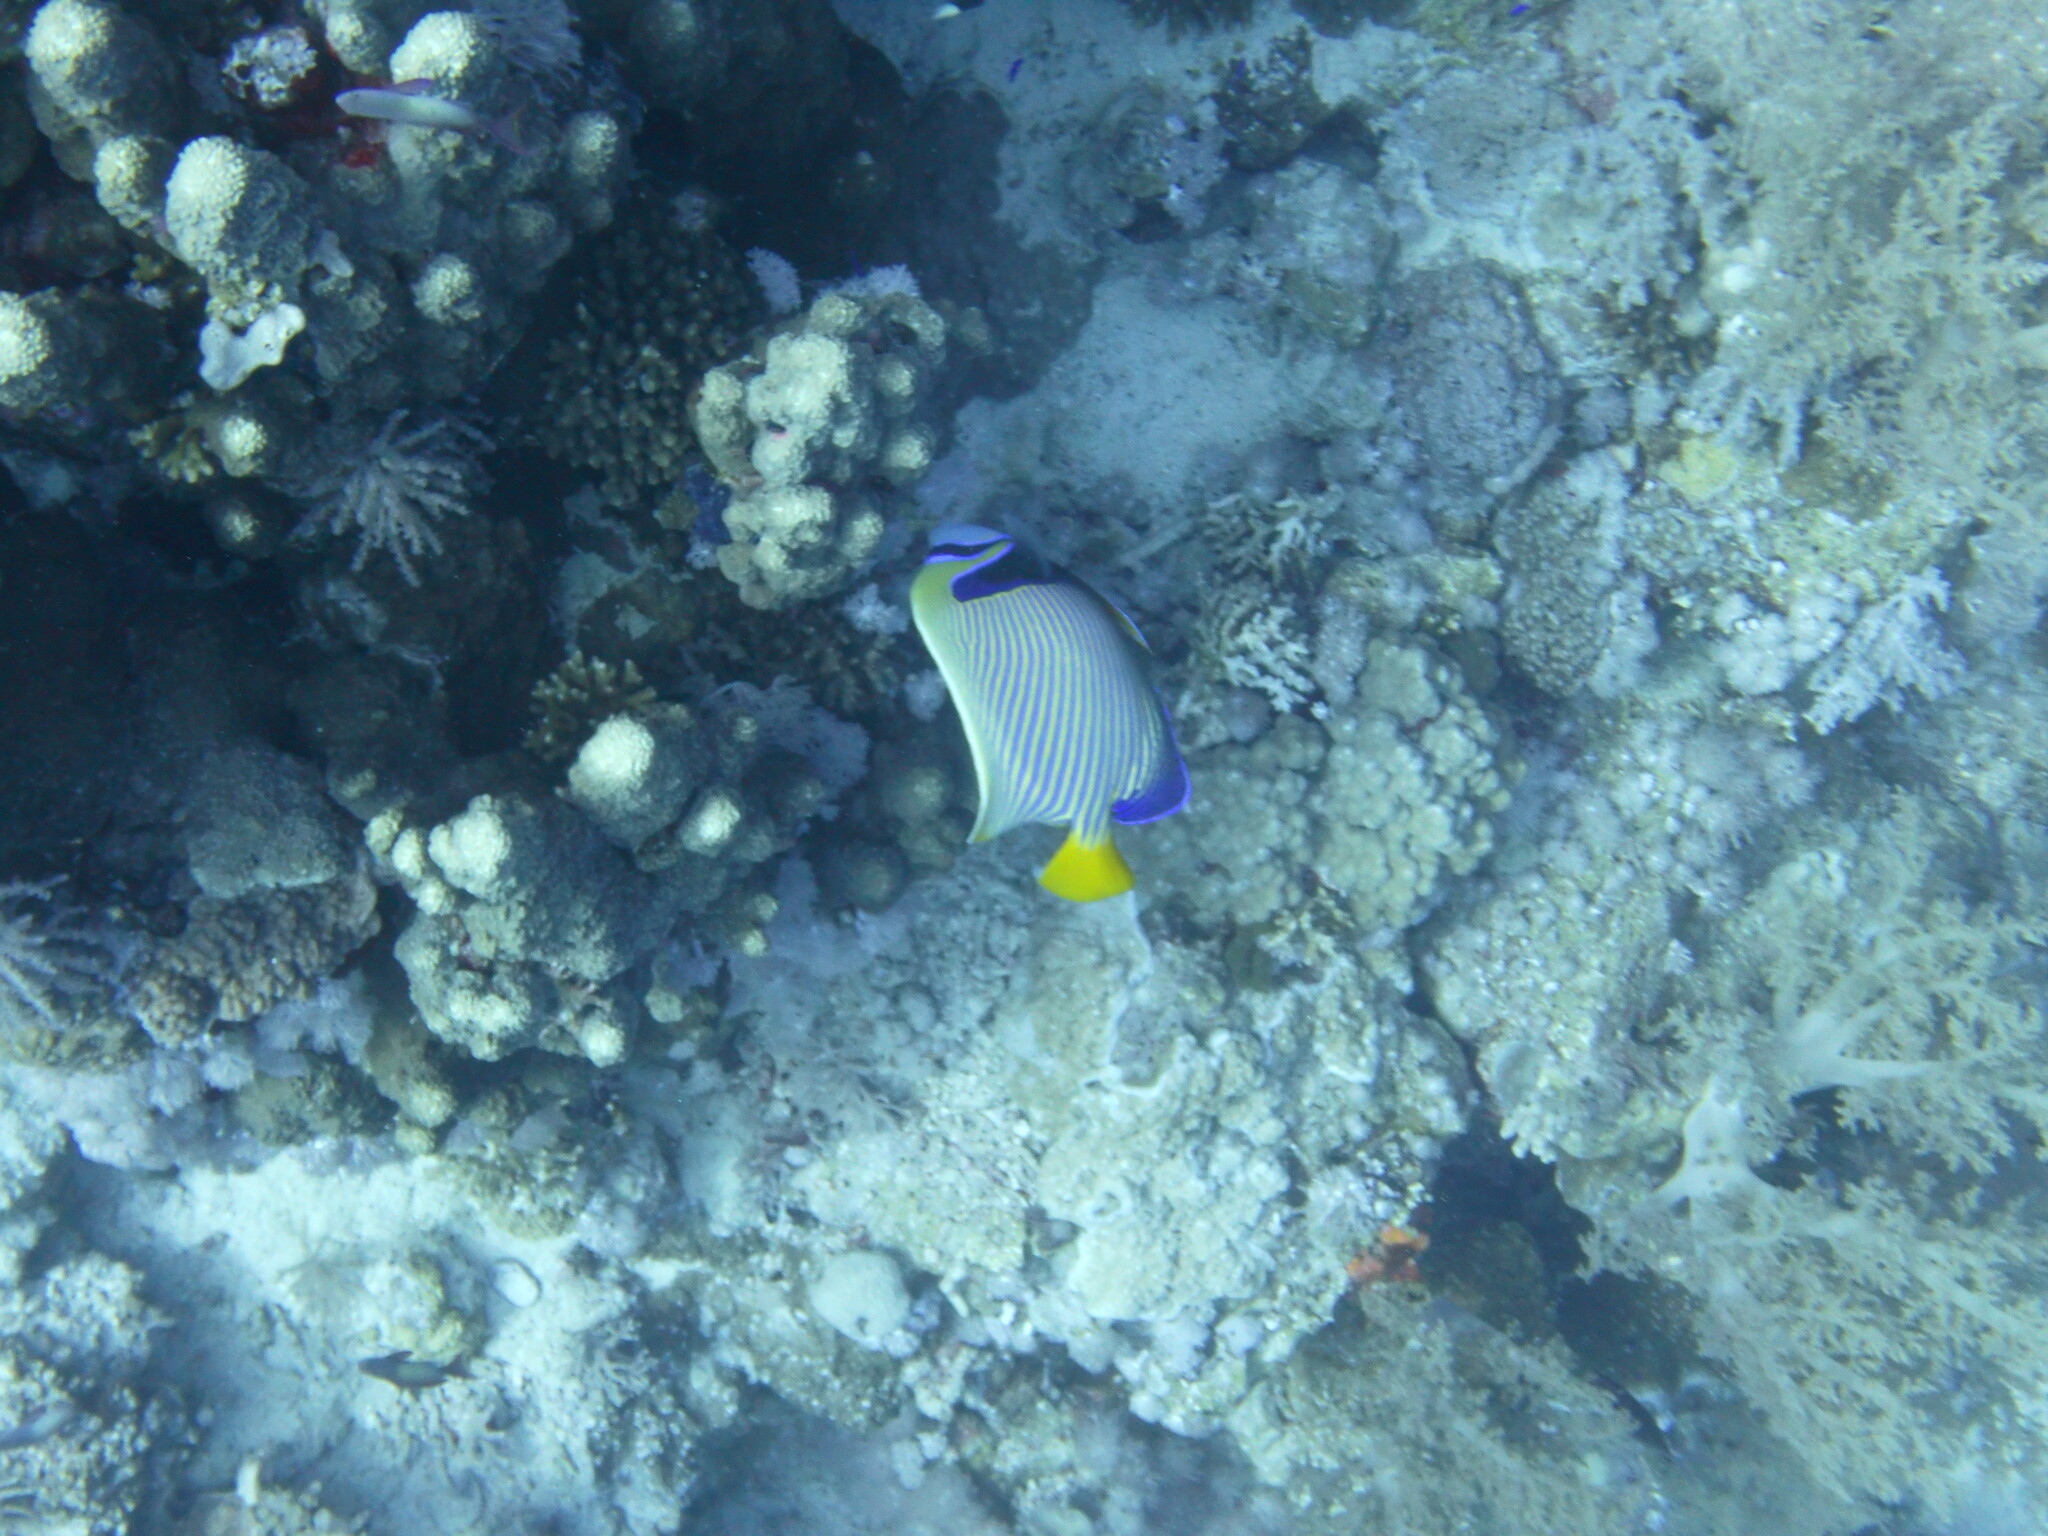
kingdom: Animalia
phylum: Chordata
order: Perciformes
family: Pomacanthidae
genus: Pomacanthus
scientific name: Pomacanthus imperator
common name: Emperor angelfish
